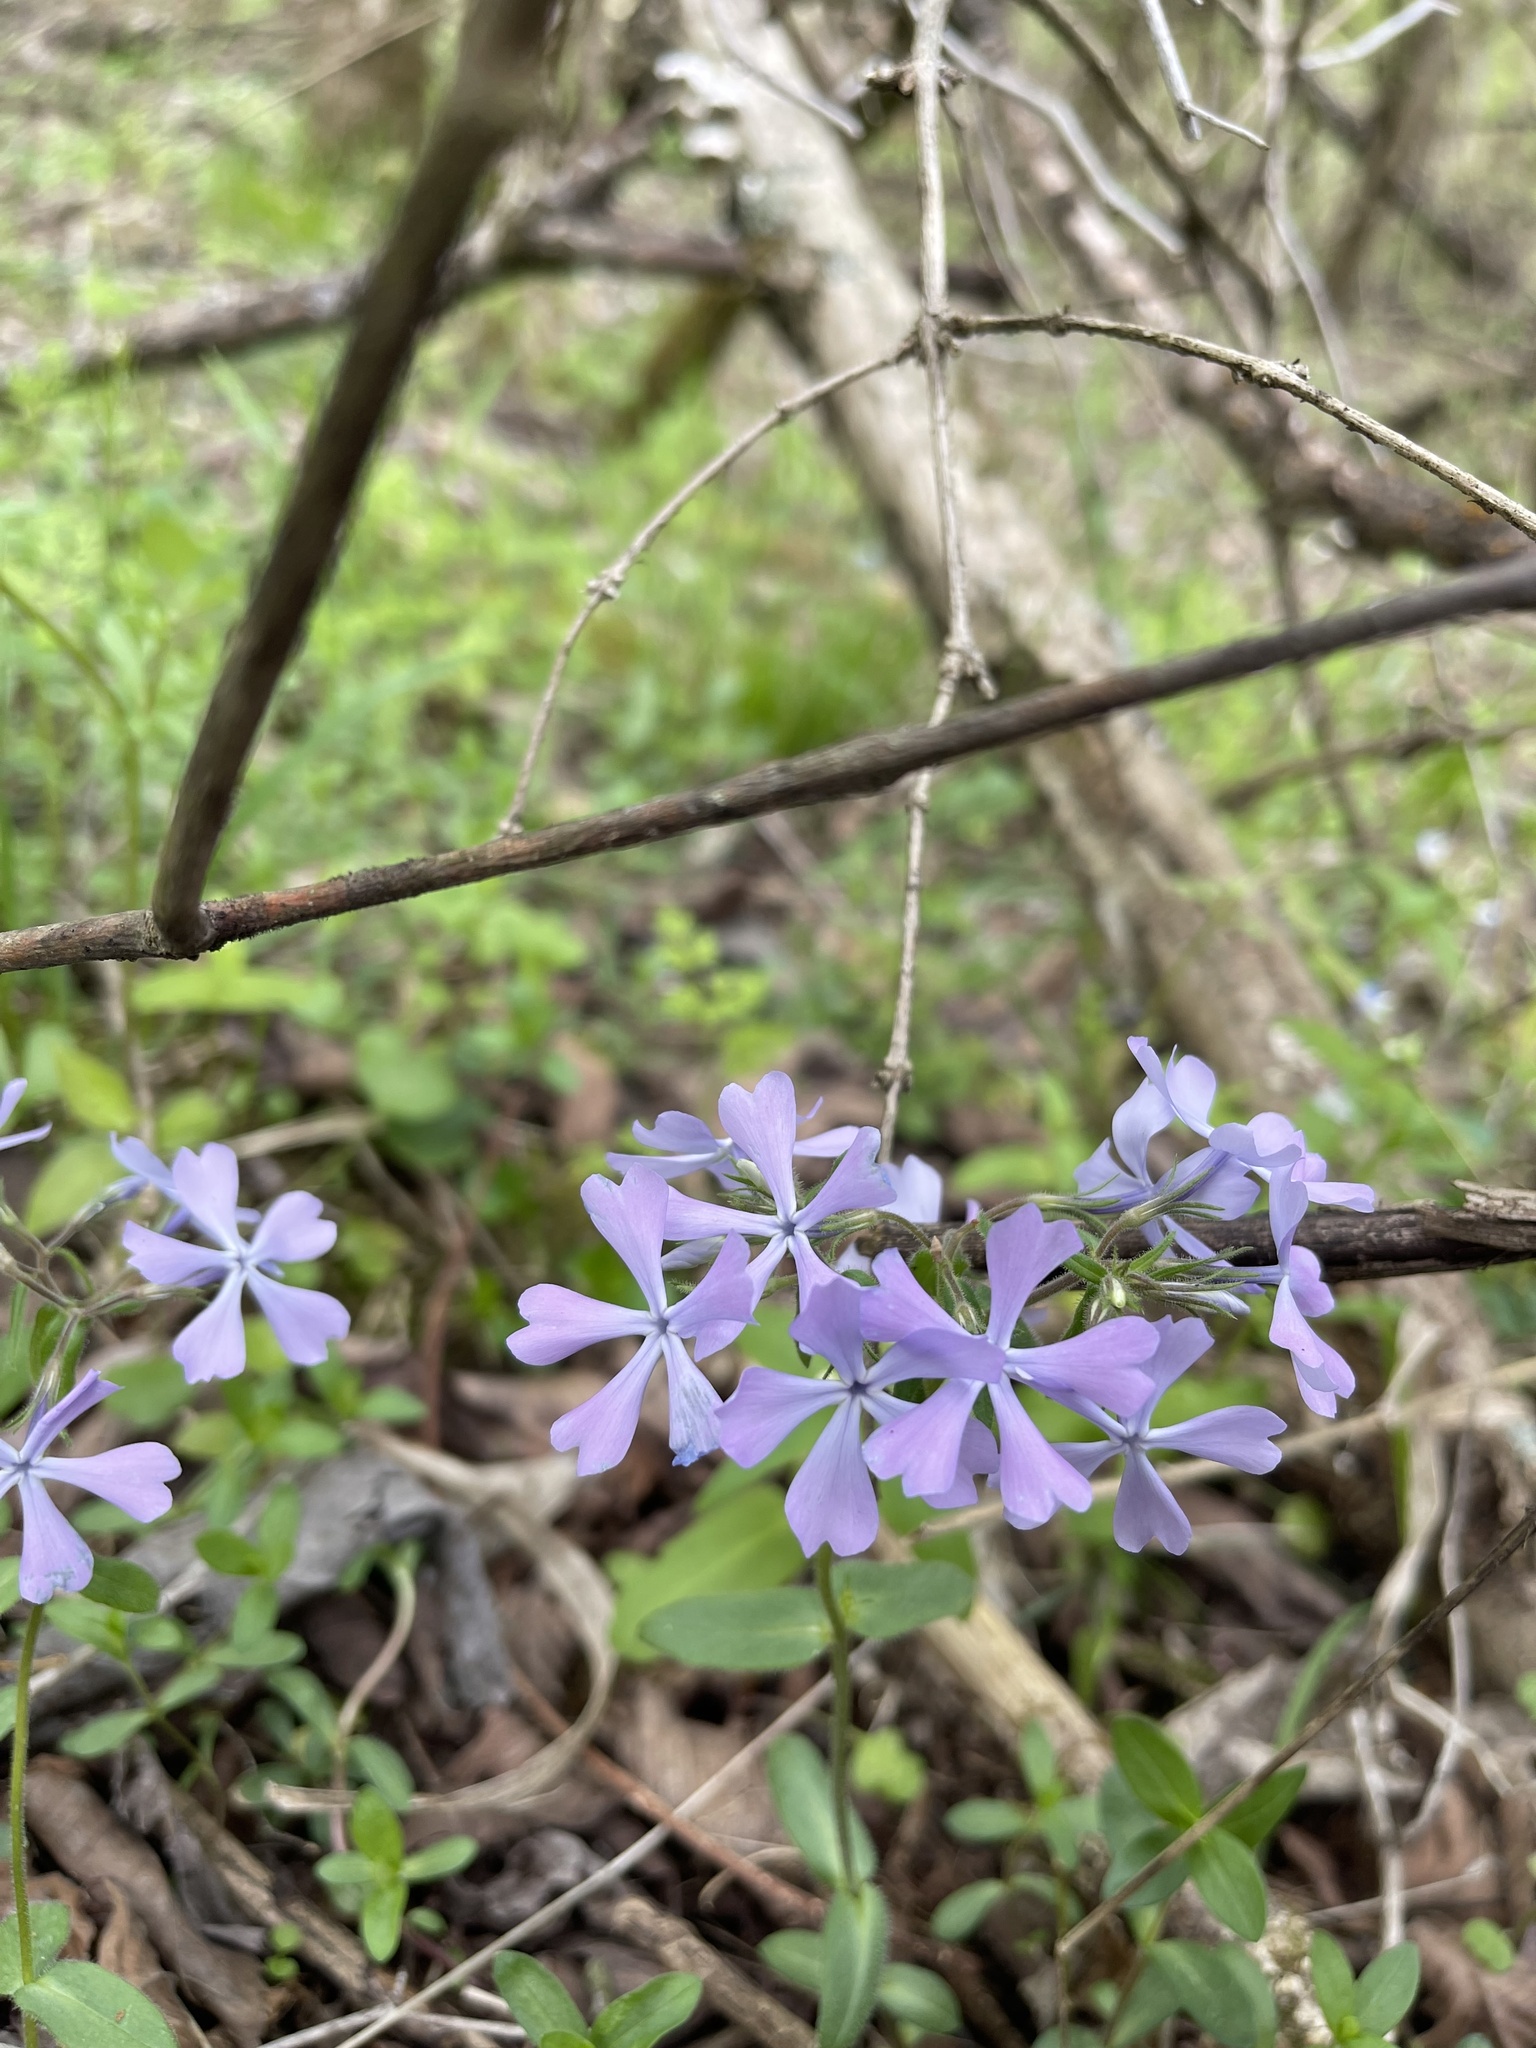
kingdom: Plantae
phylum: Tracheophyta
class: Magnoliopsida
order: Ericales
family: Polemoniaceae
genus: Phlox
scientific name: Phlox divaricata
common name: Blue phlox
